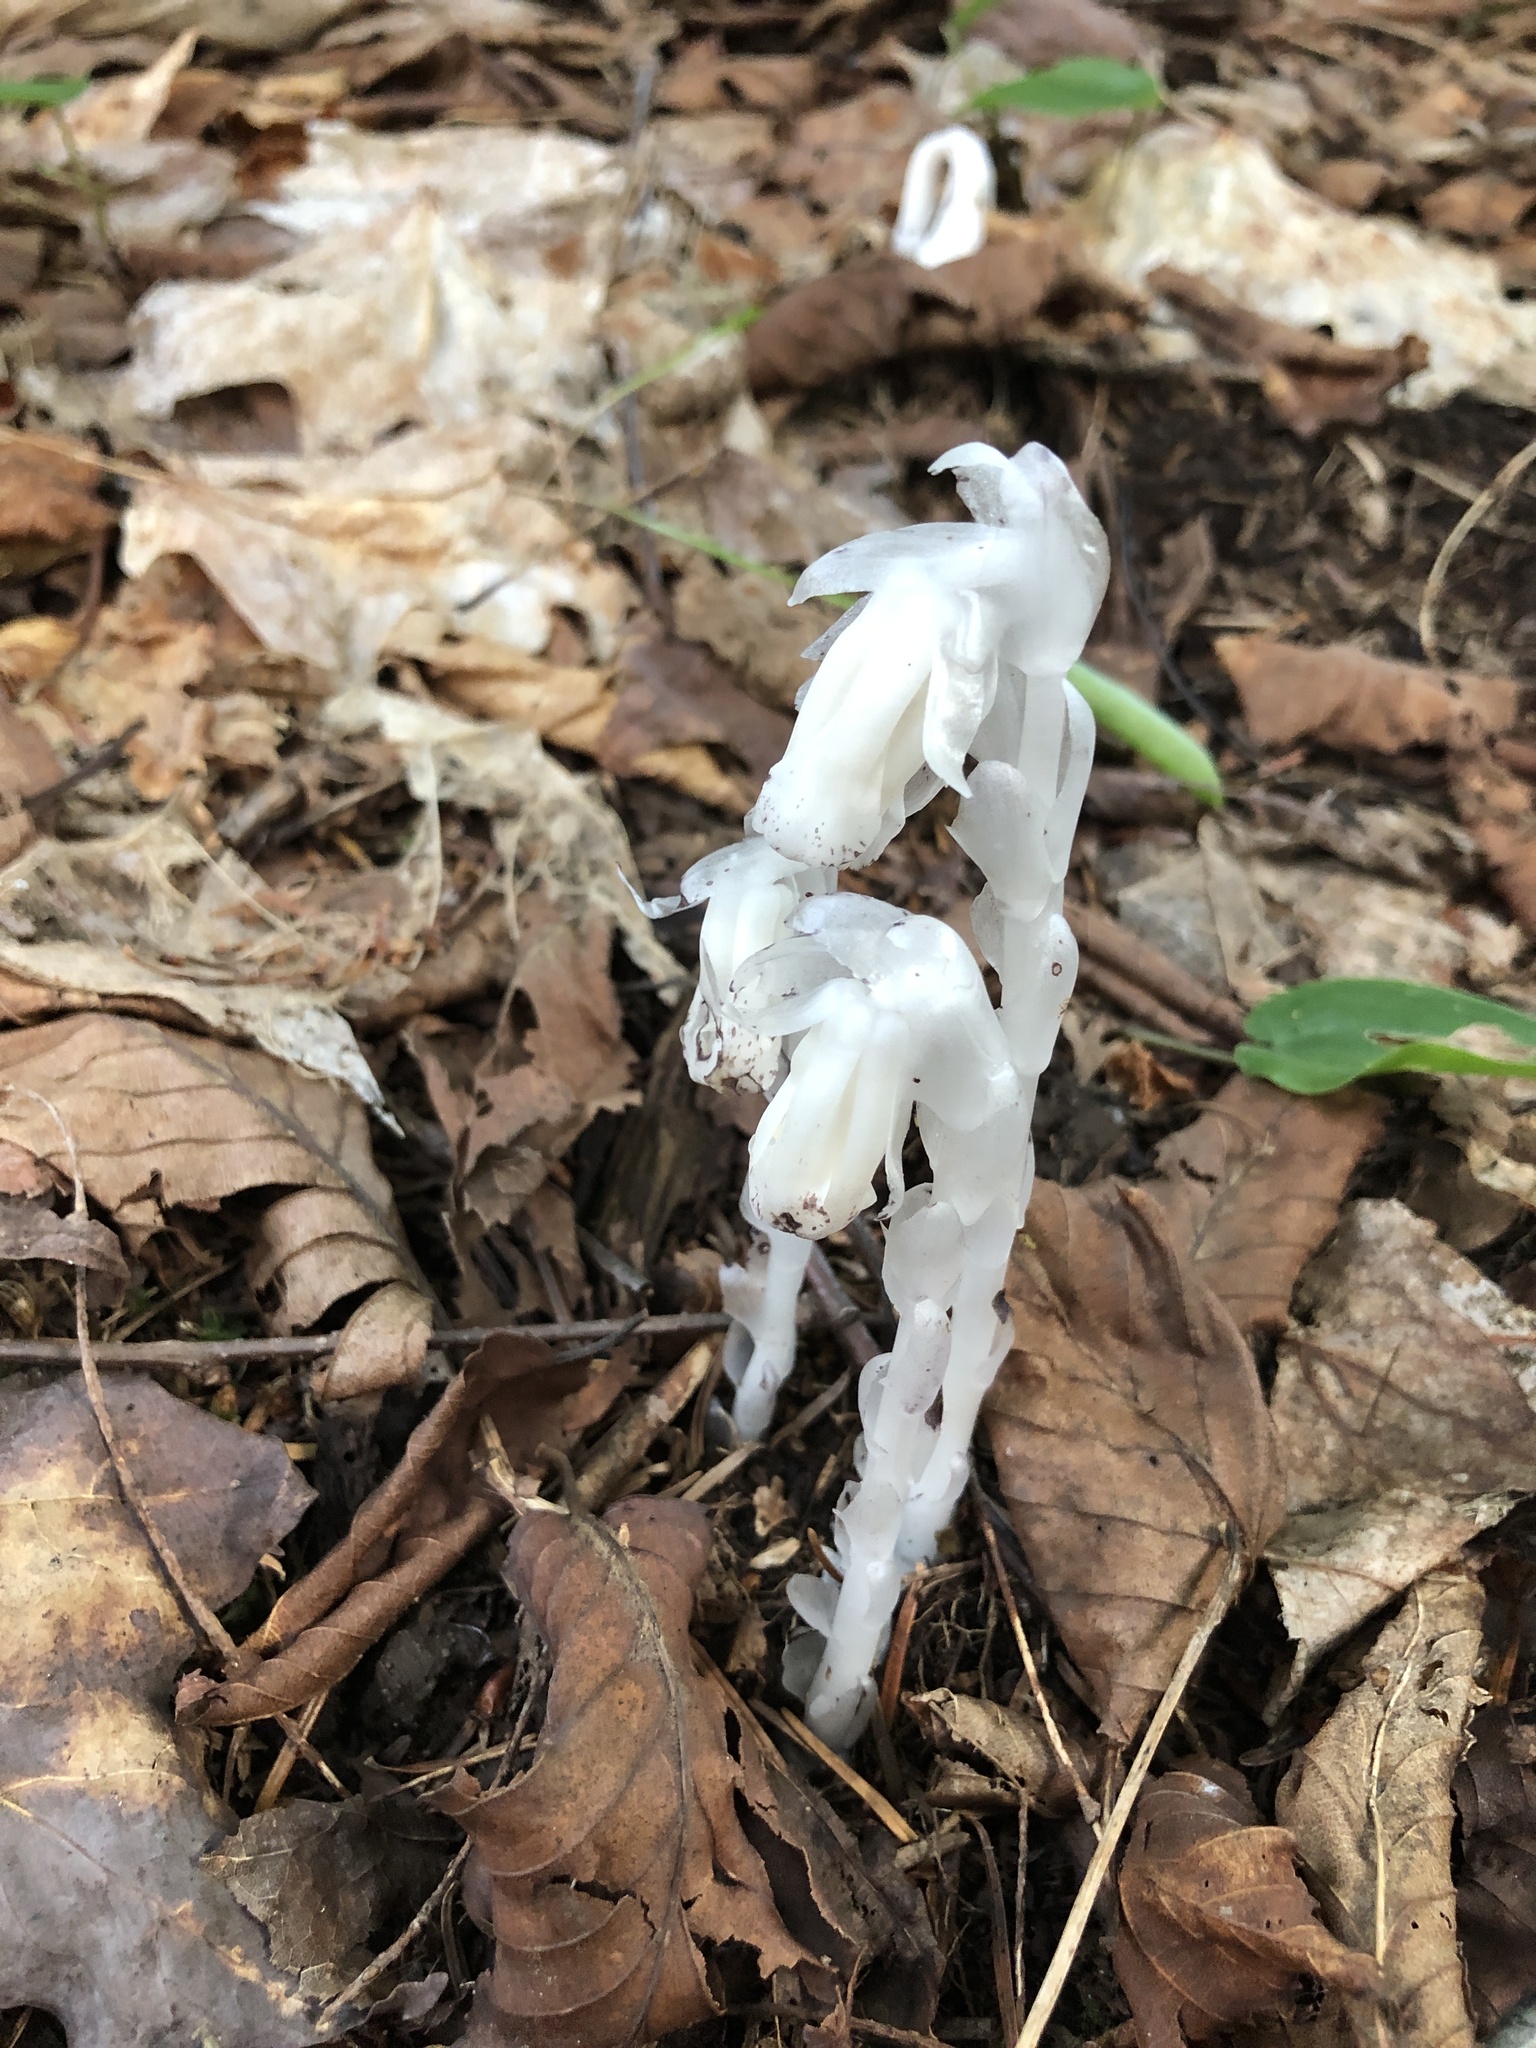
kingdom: Plantae
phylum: Tracheophyta
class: Magnoliopsida
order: Ericales
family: Ericaceae
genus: Monotropa
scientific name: Monotropa uniflora
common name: Convulsion root
